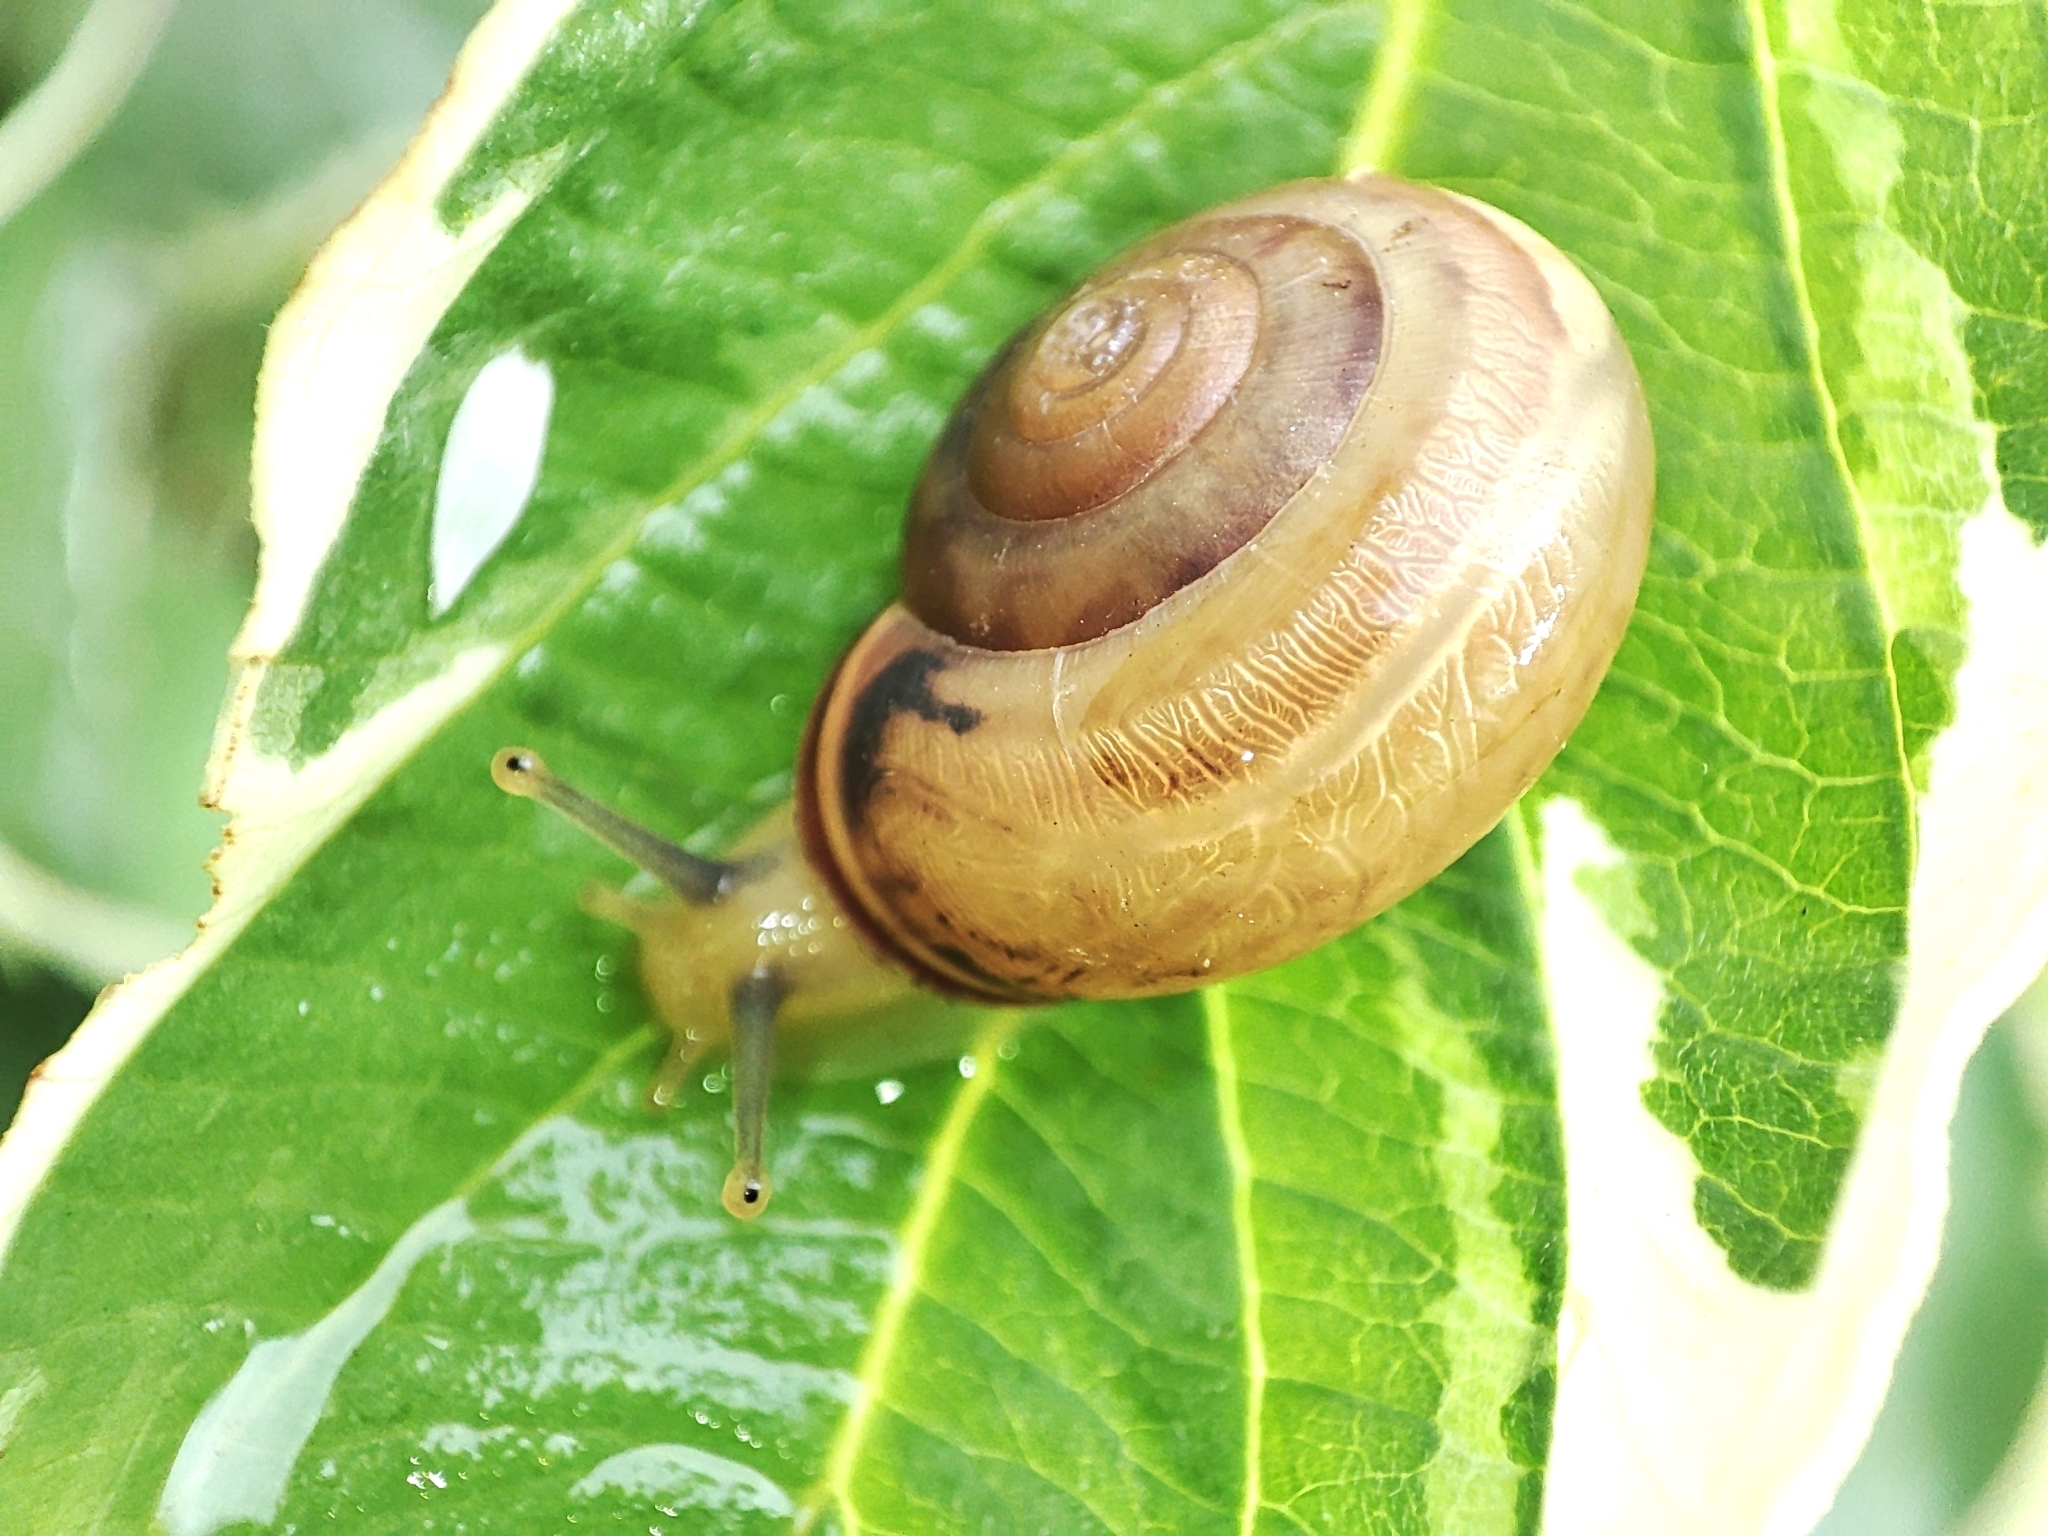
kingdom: Animalia
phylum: Mollusca
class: Gastropoda
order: Stylommatophora
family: Hygromiidae
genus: Monacha
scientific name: Monacha cartusiana
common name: Carthusian snail
